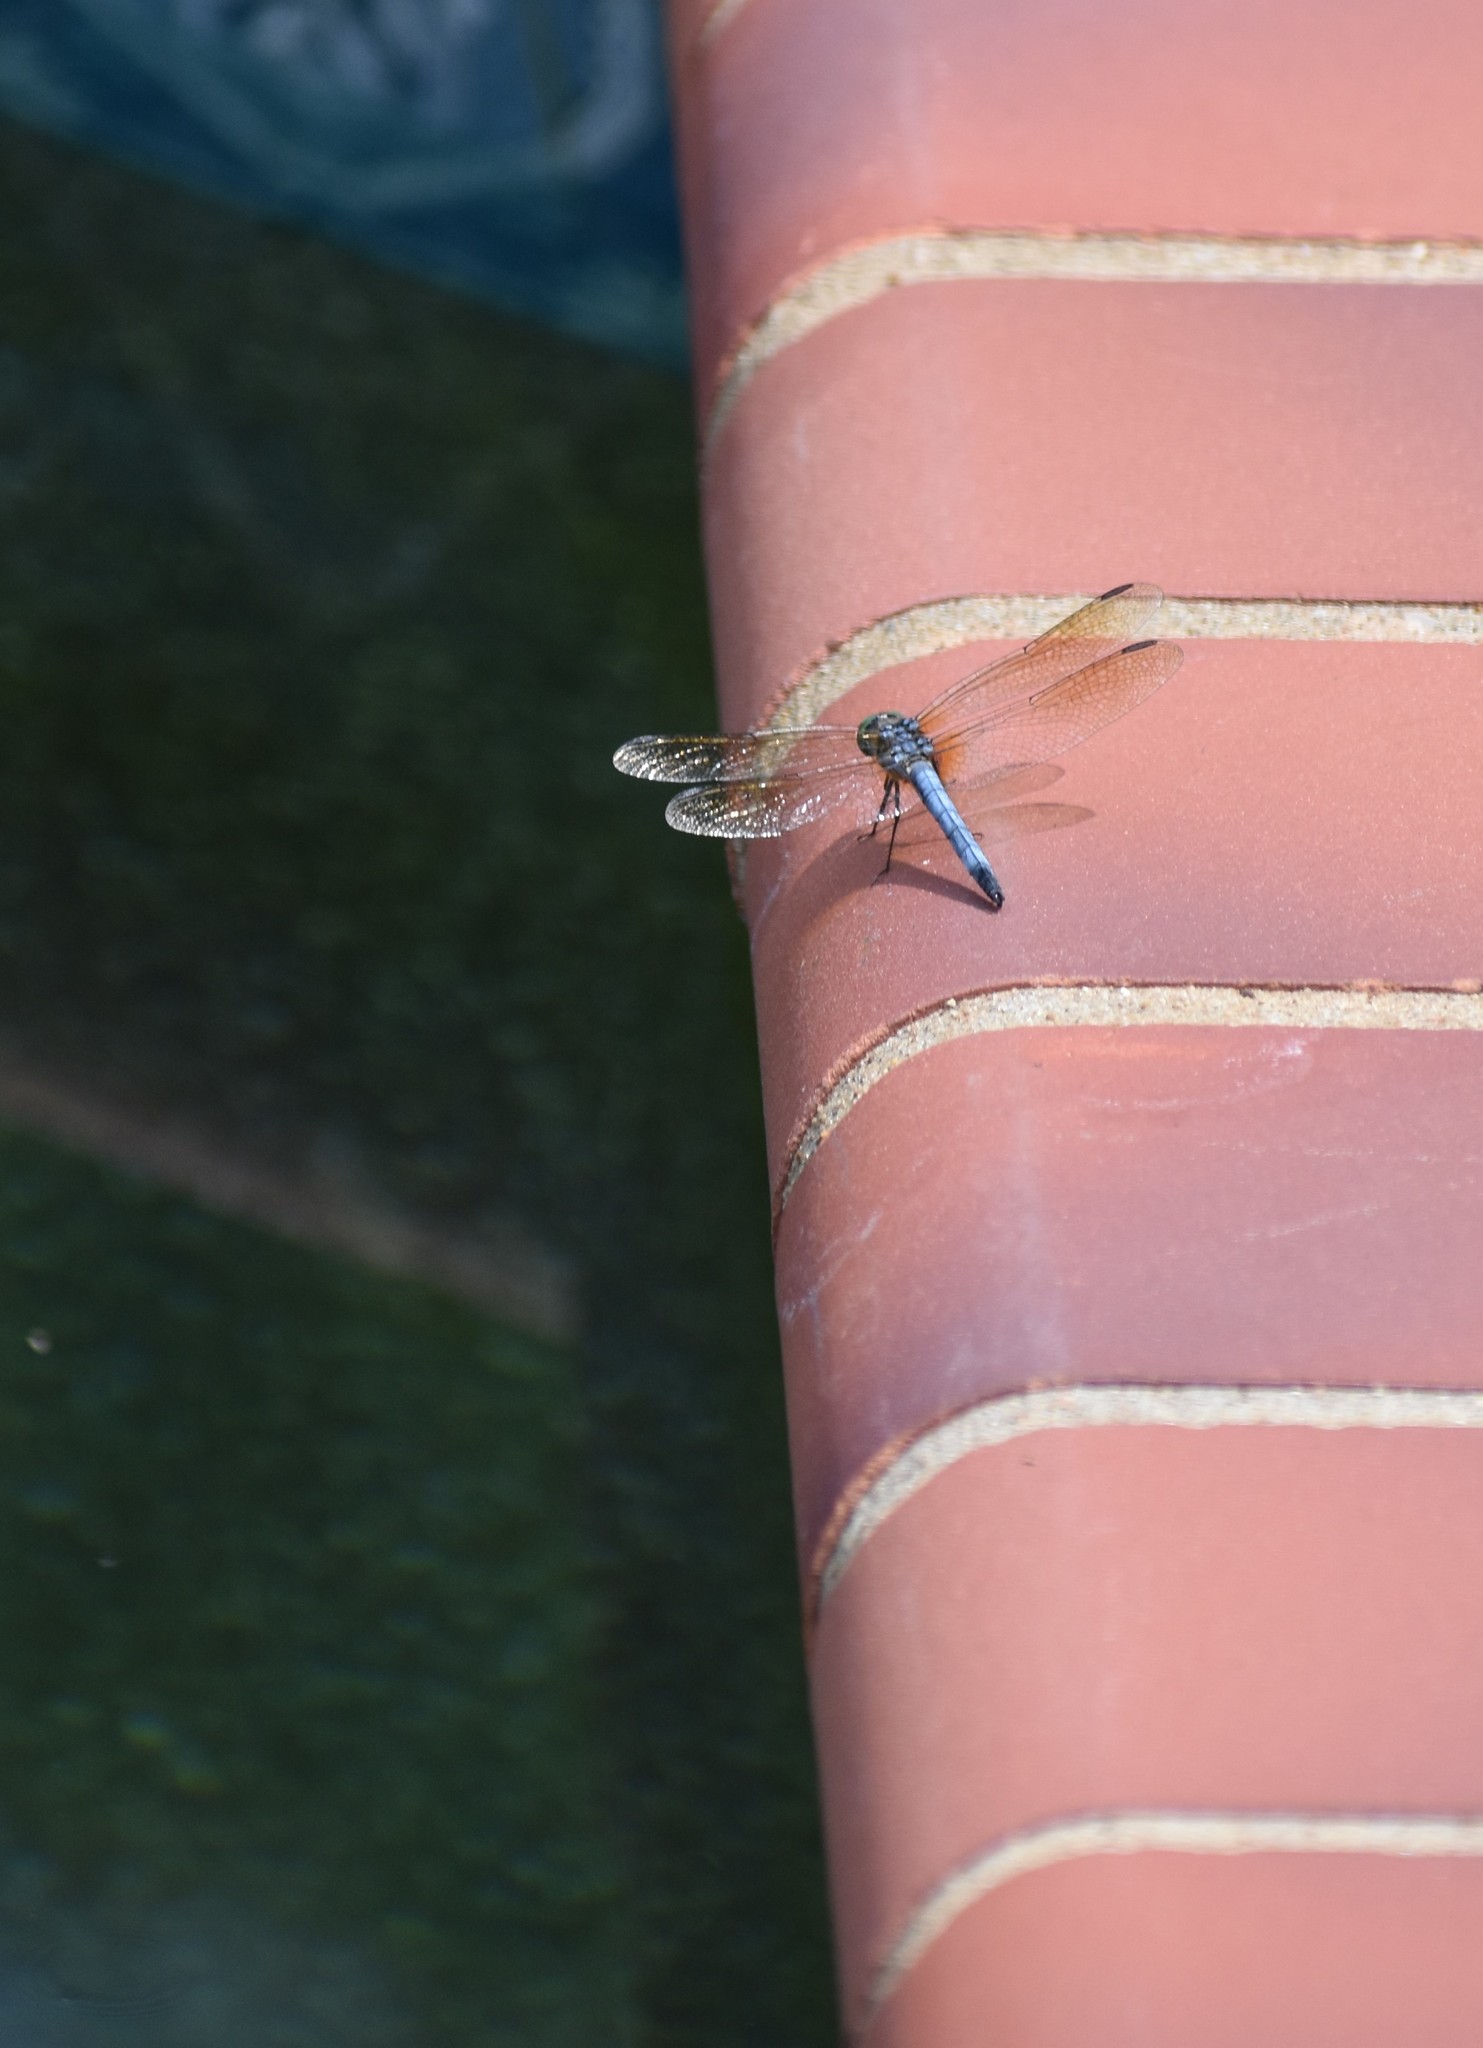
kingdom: Animalia
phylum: Arthropoda
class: Insecta
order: Odonata
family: Libellulidae
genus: Pachydiplax
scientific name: Pachydiplax longipennis
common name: Blue dasher
